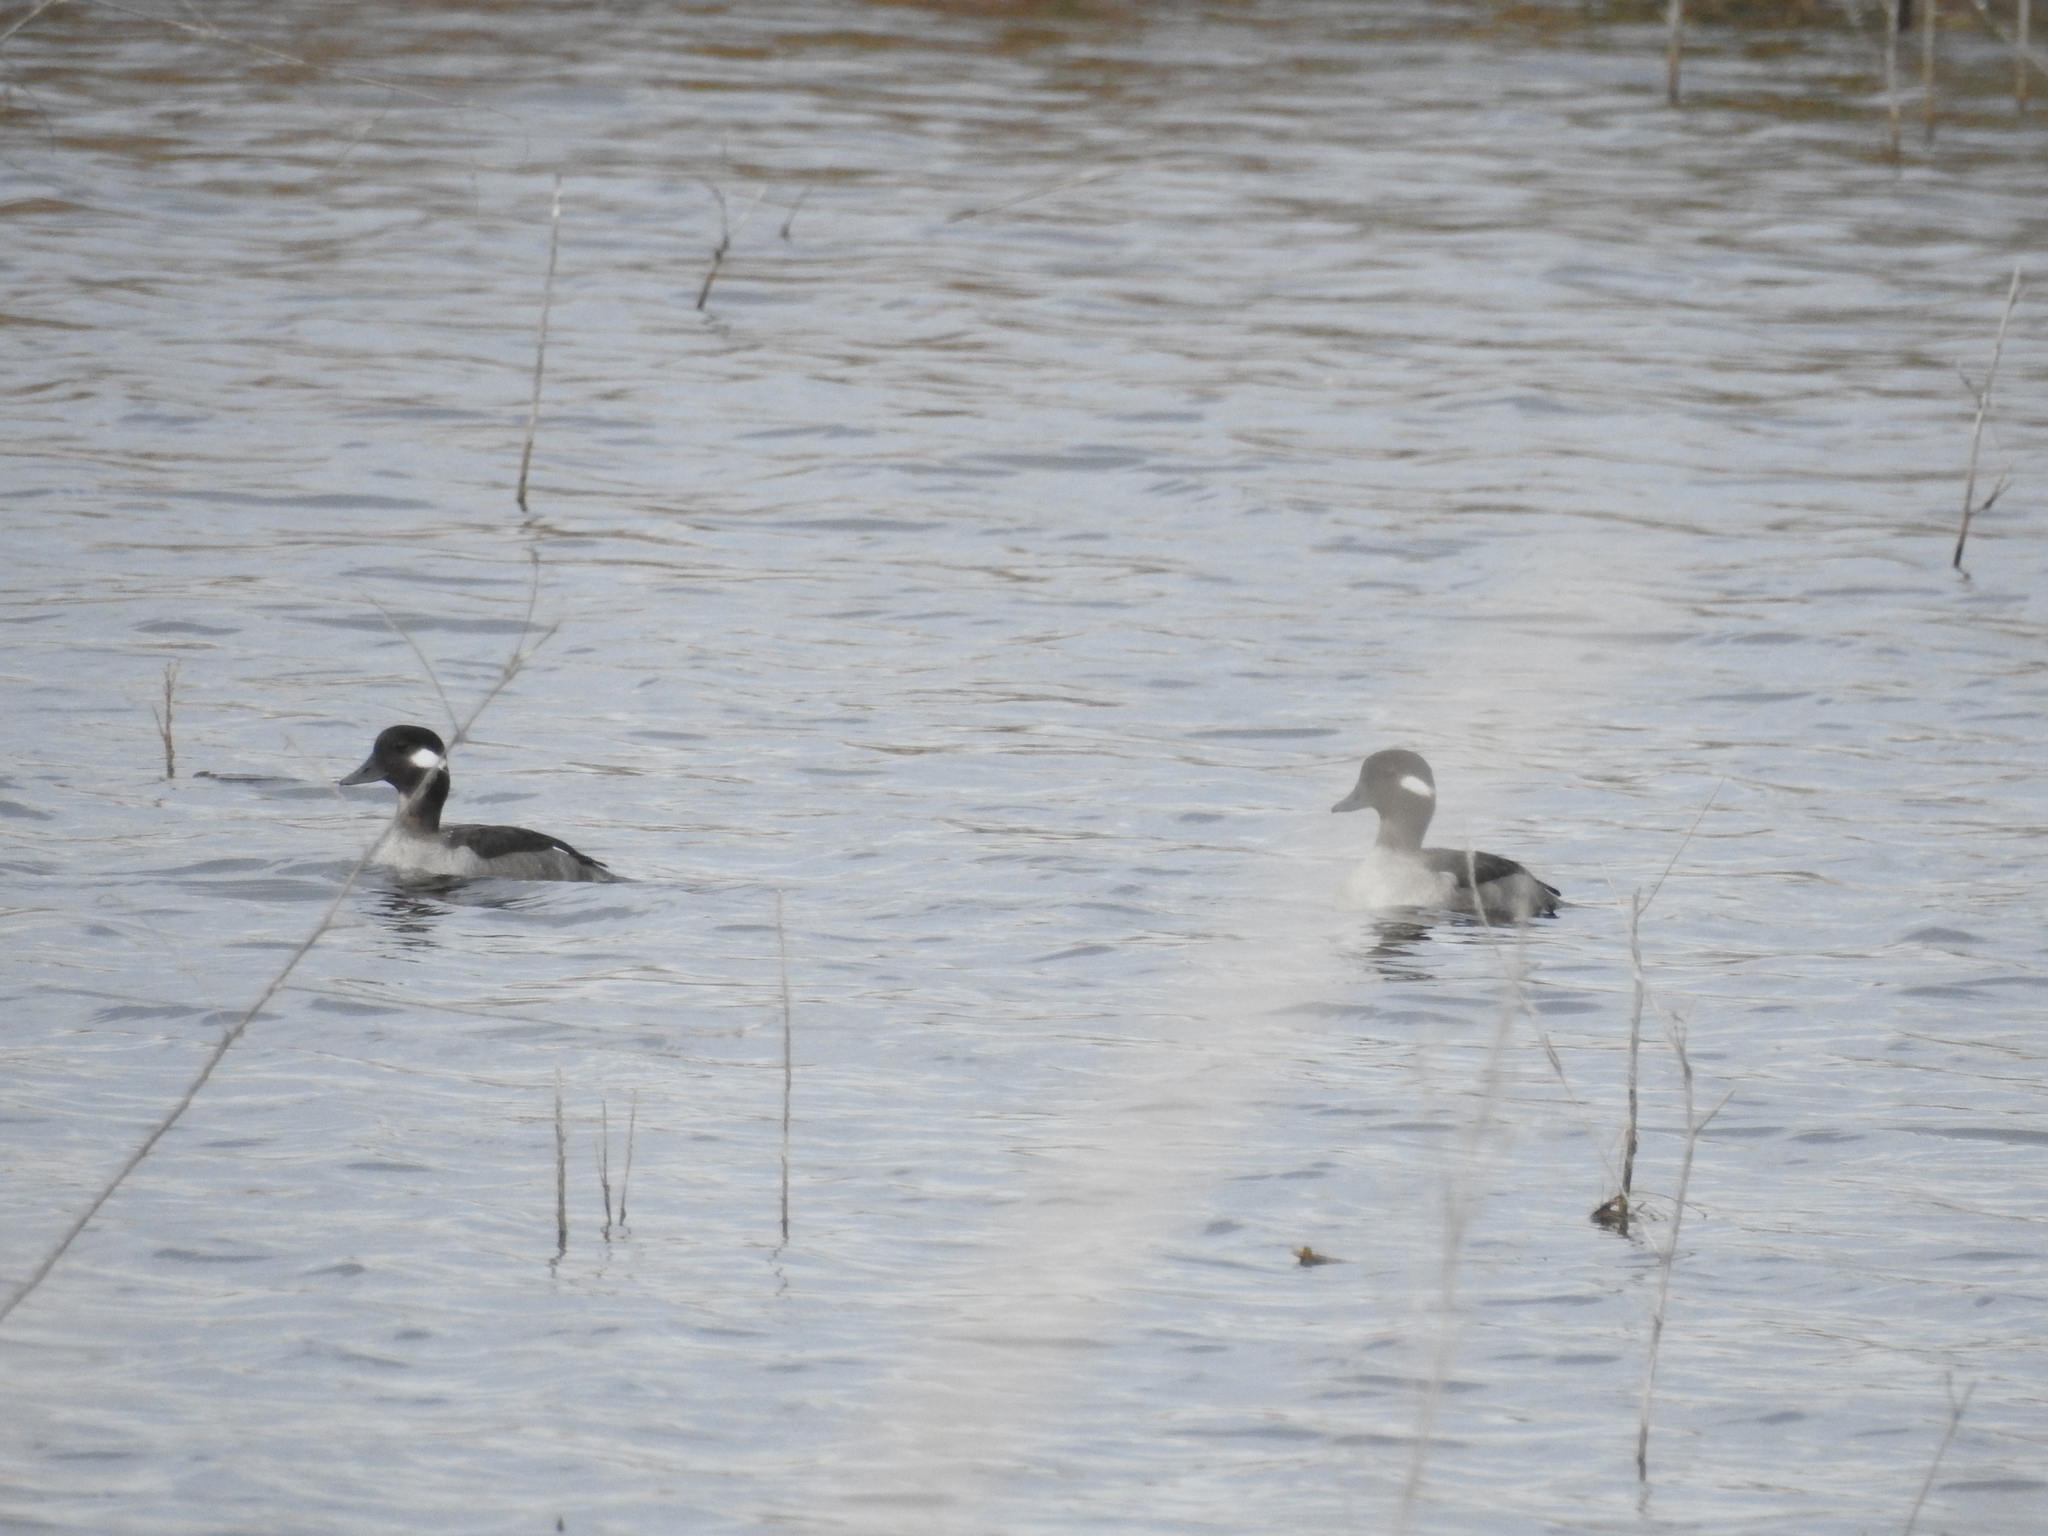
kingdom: Animalia
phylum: Chordata
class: Aves
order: Anseriformes
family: Anatidae
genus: Bucephala
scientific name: Bucephala albeola
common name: Bufflehead
